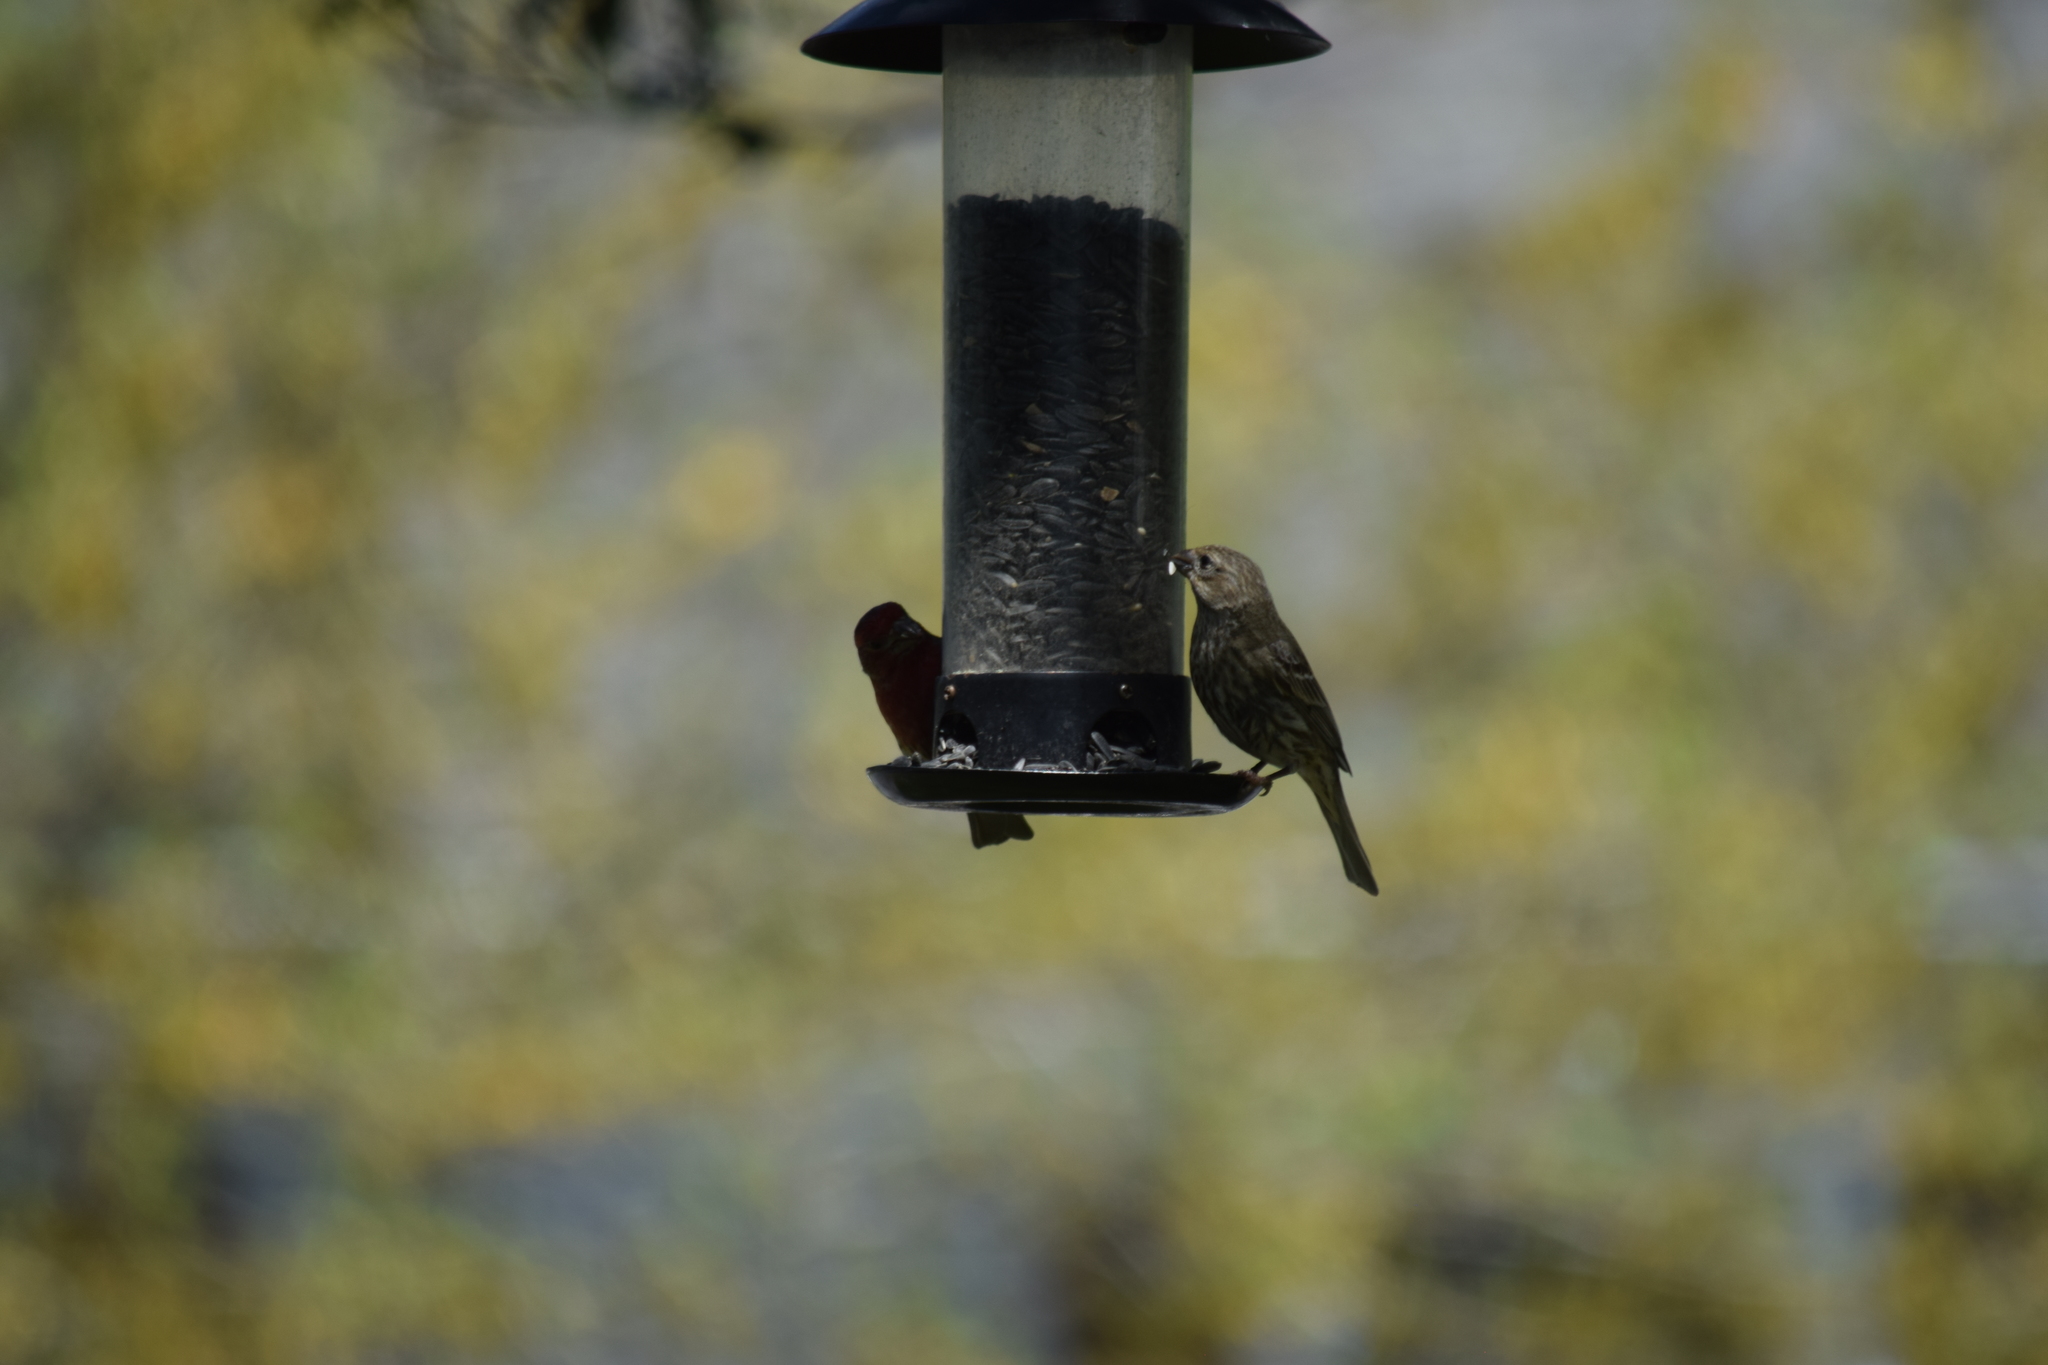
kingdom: Animalia
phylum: Chordata
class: Aves
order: Passeriformes
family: Fringillidae
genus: Haemorhous
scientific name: Haemorhous mexicanus
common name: House finch
